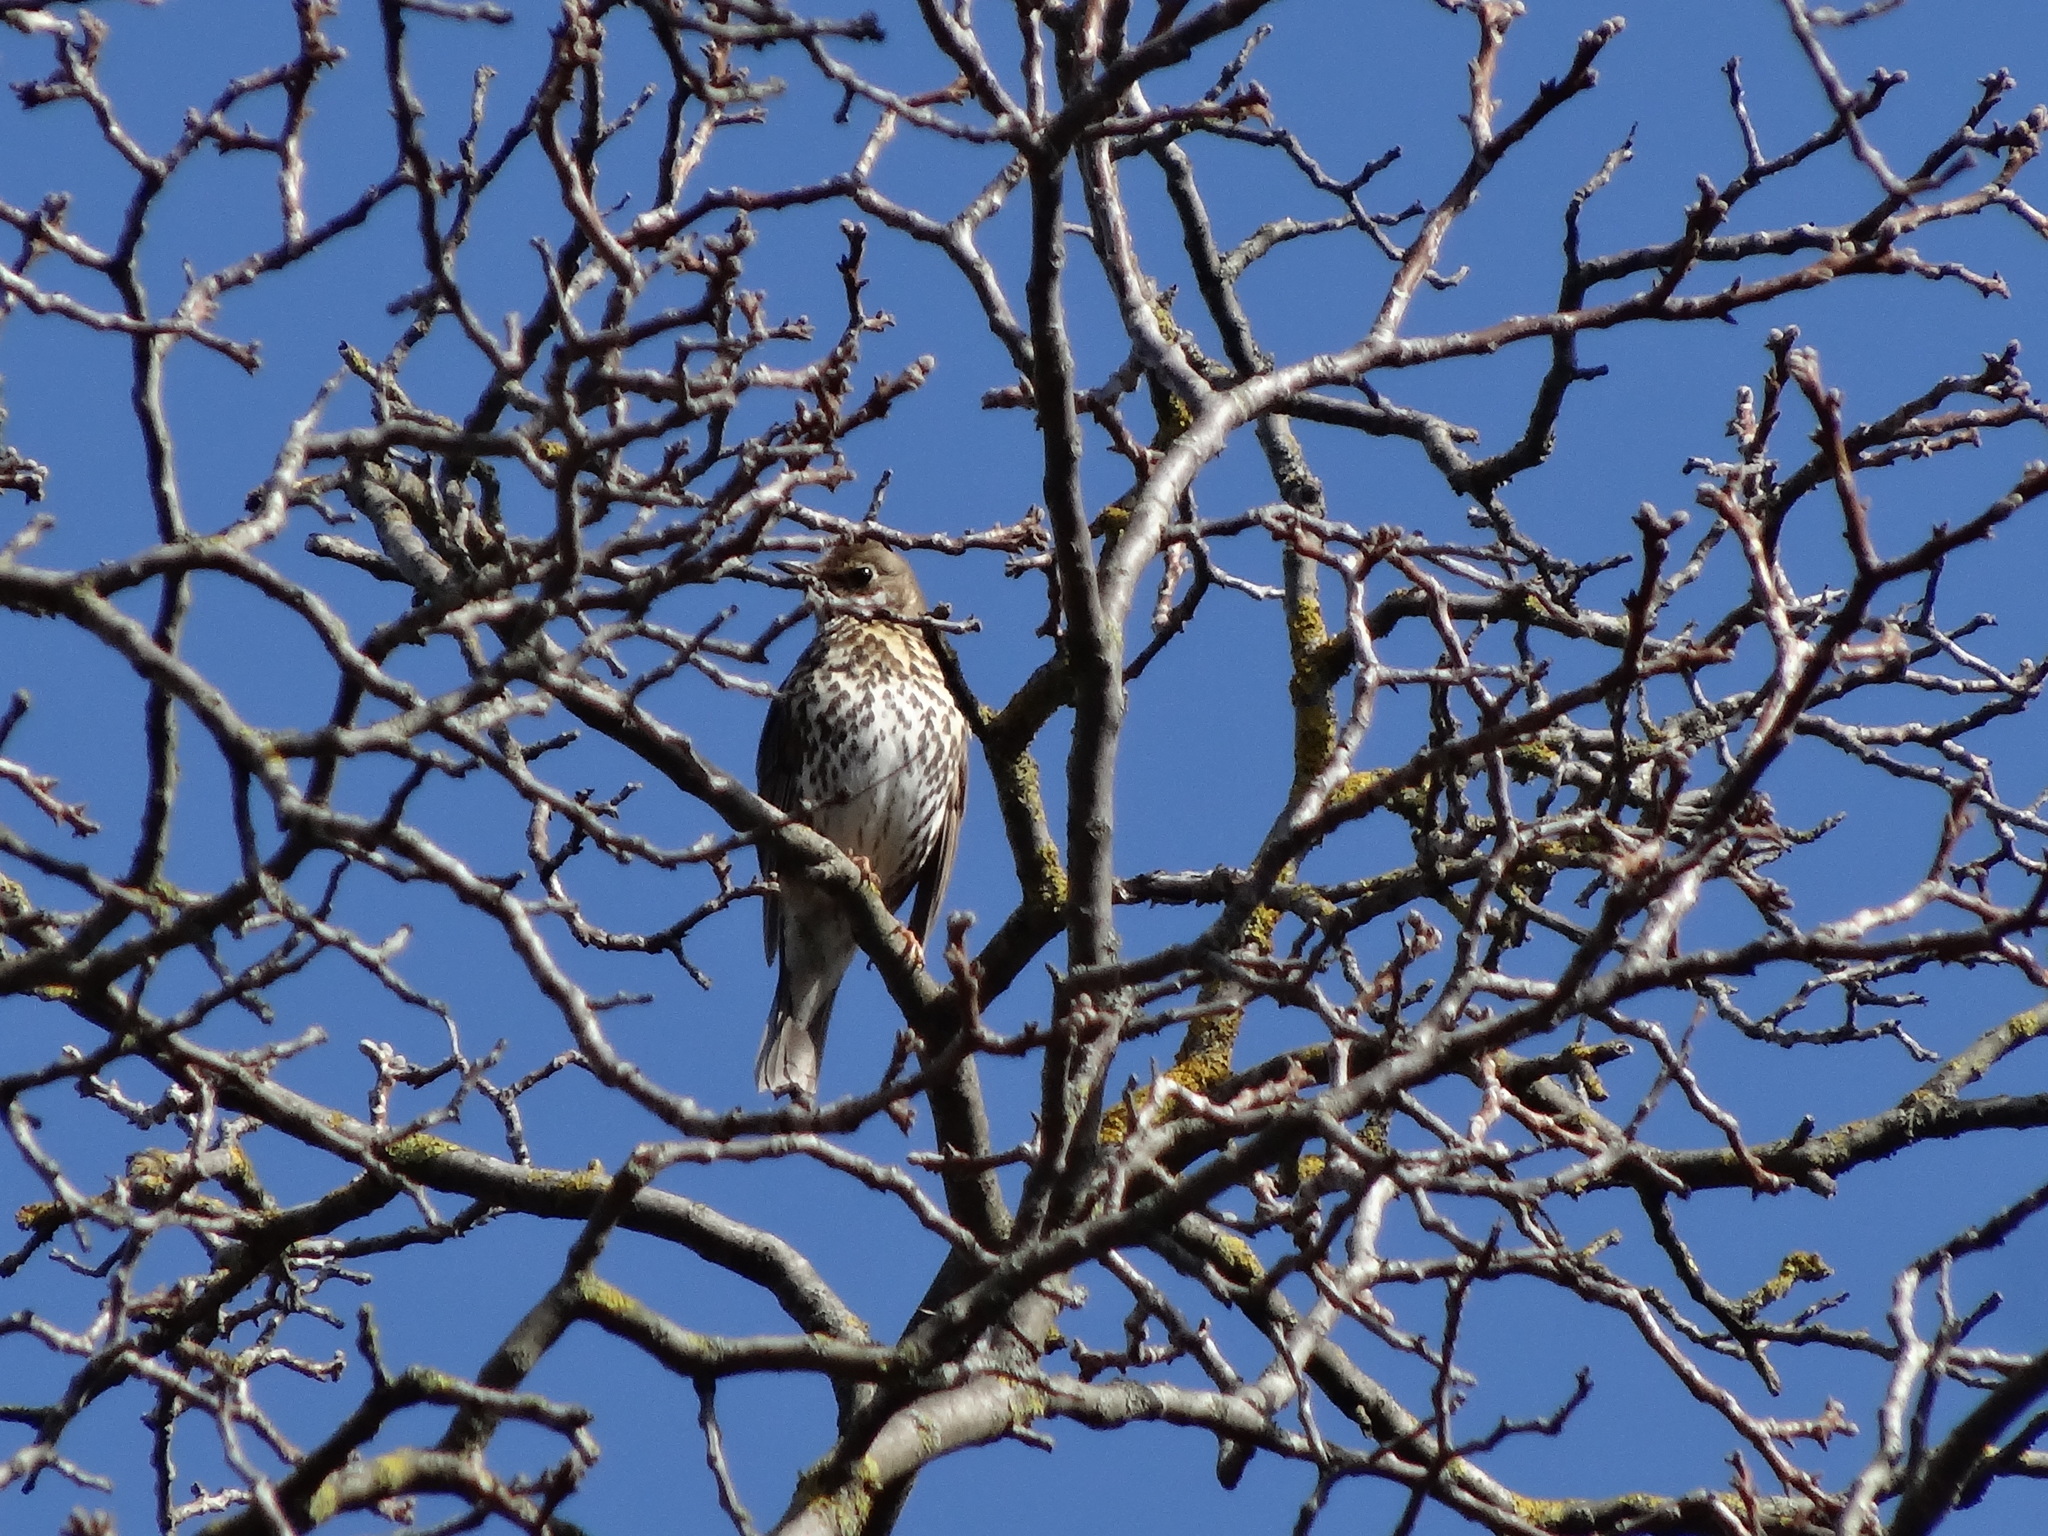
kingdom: Animalia
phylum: Chordata
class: Aves
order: Passeriformes
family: Turdidae
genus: Turdus
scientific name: Turdus philomelos
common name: Song thrush
